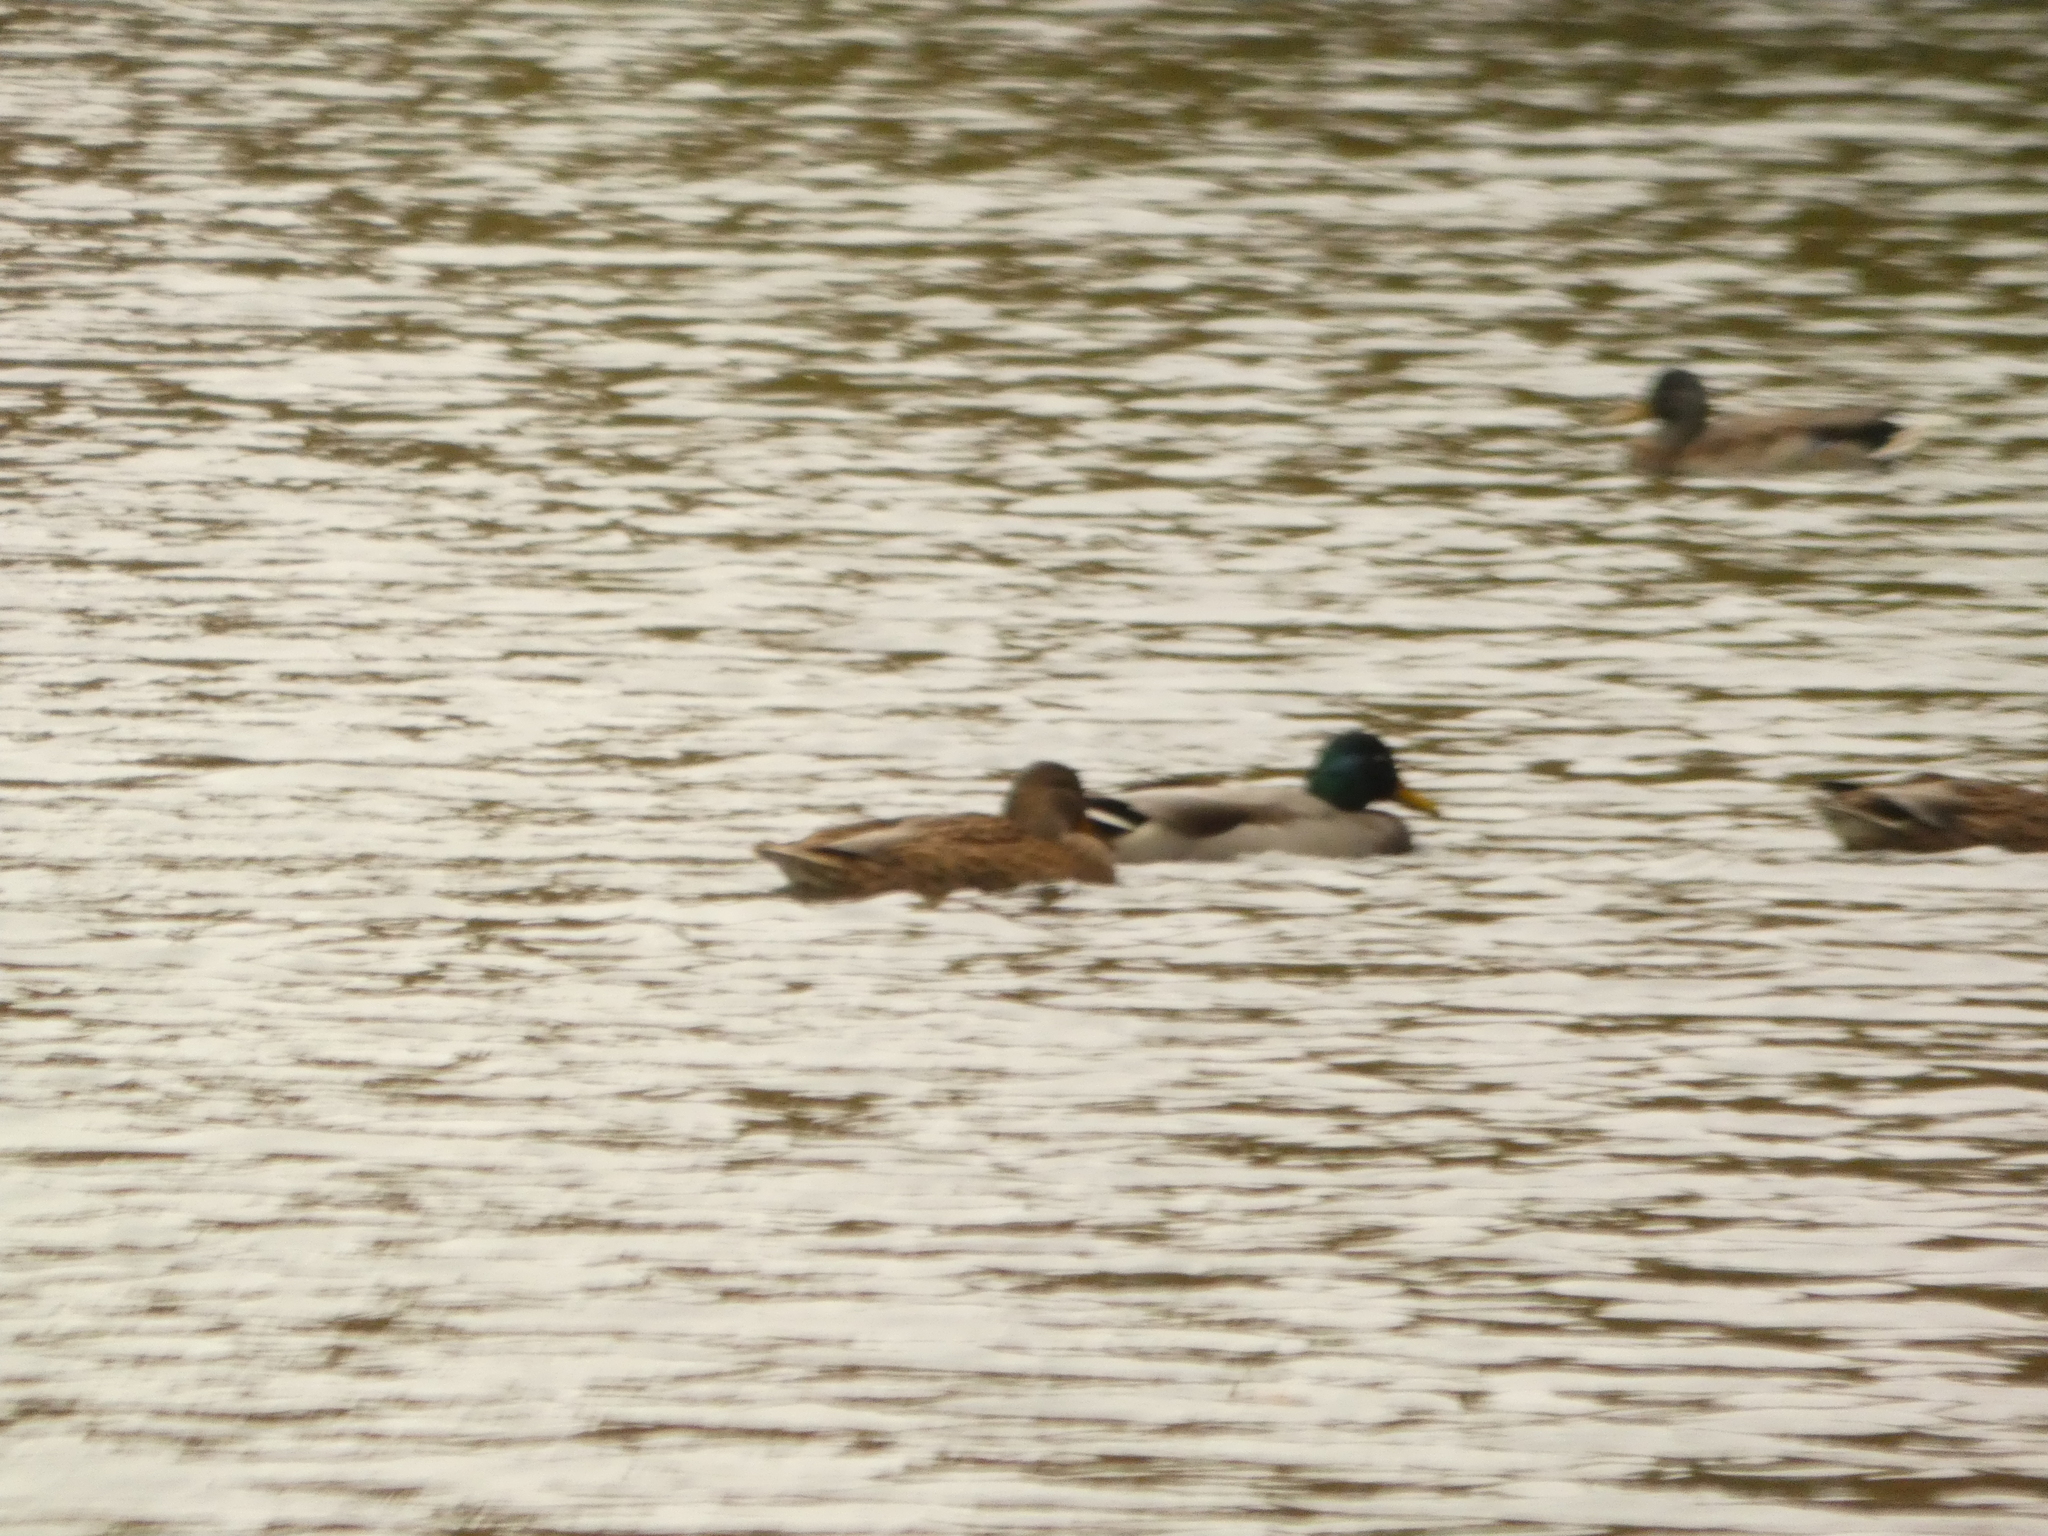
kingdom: Animalia
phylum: Chordata
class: Aves
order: Anseriformes
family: Anatidae
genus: Anas
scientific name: Anas platyrhynchos
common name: Mallard
